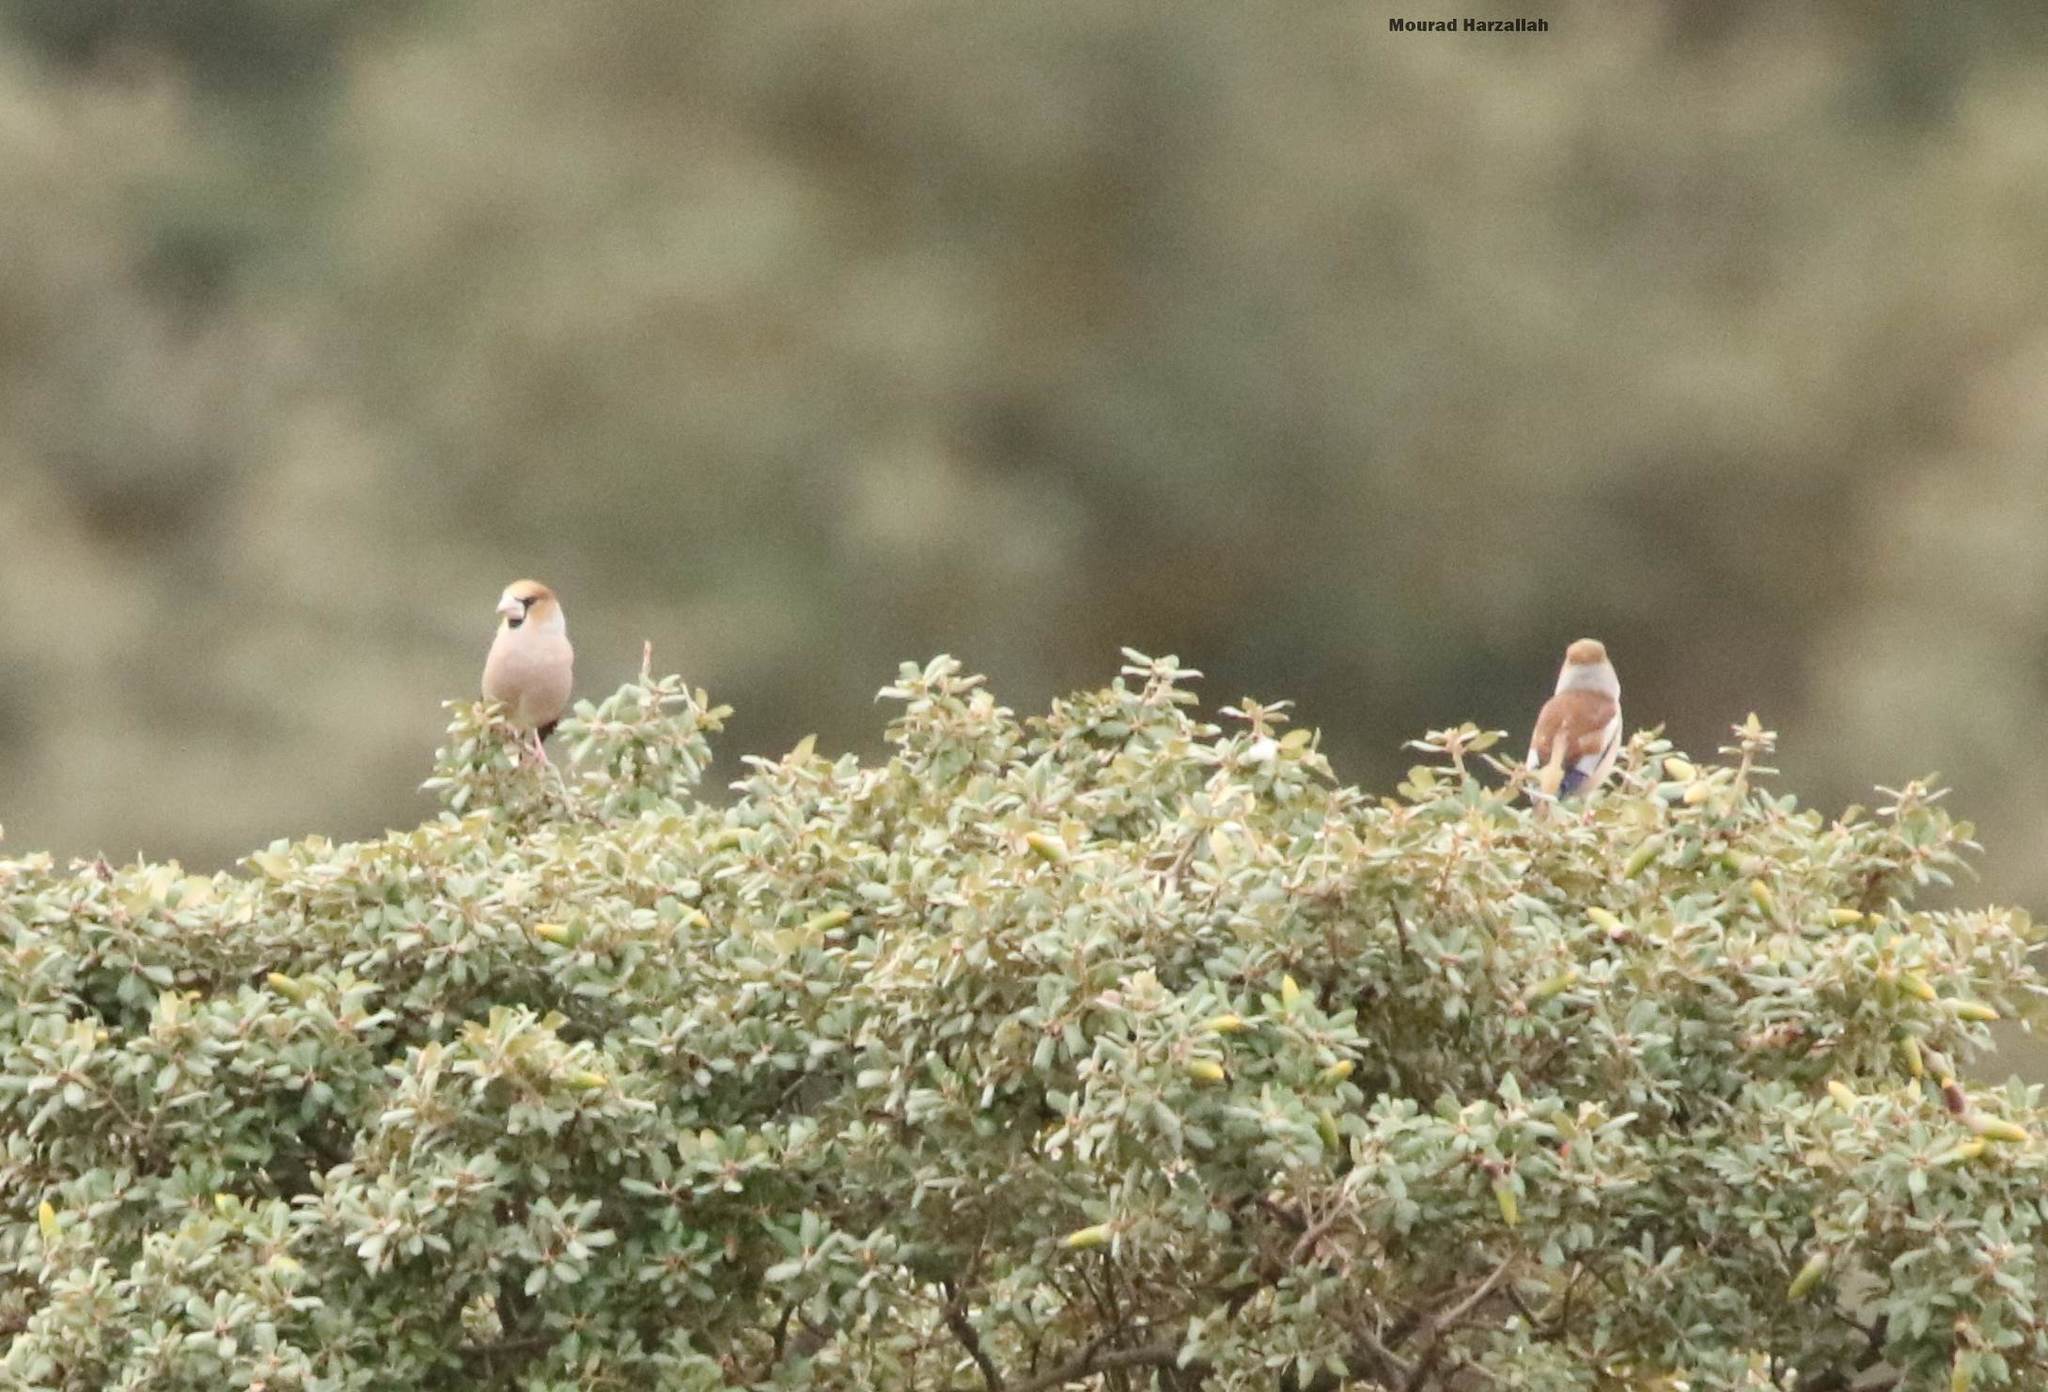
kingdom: Animalia
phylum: Chordata
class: Aves
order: Passeriformes
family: Fringillidae
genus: Coccothraustes
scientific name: Coccothraustes coccothraustes
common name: Hawfinch
